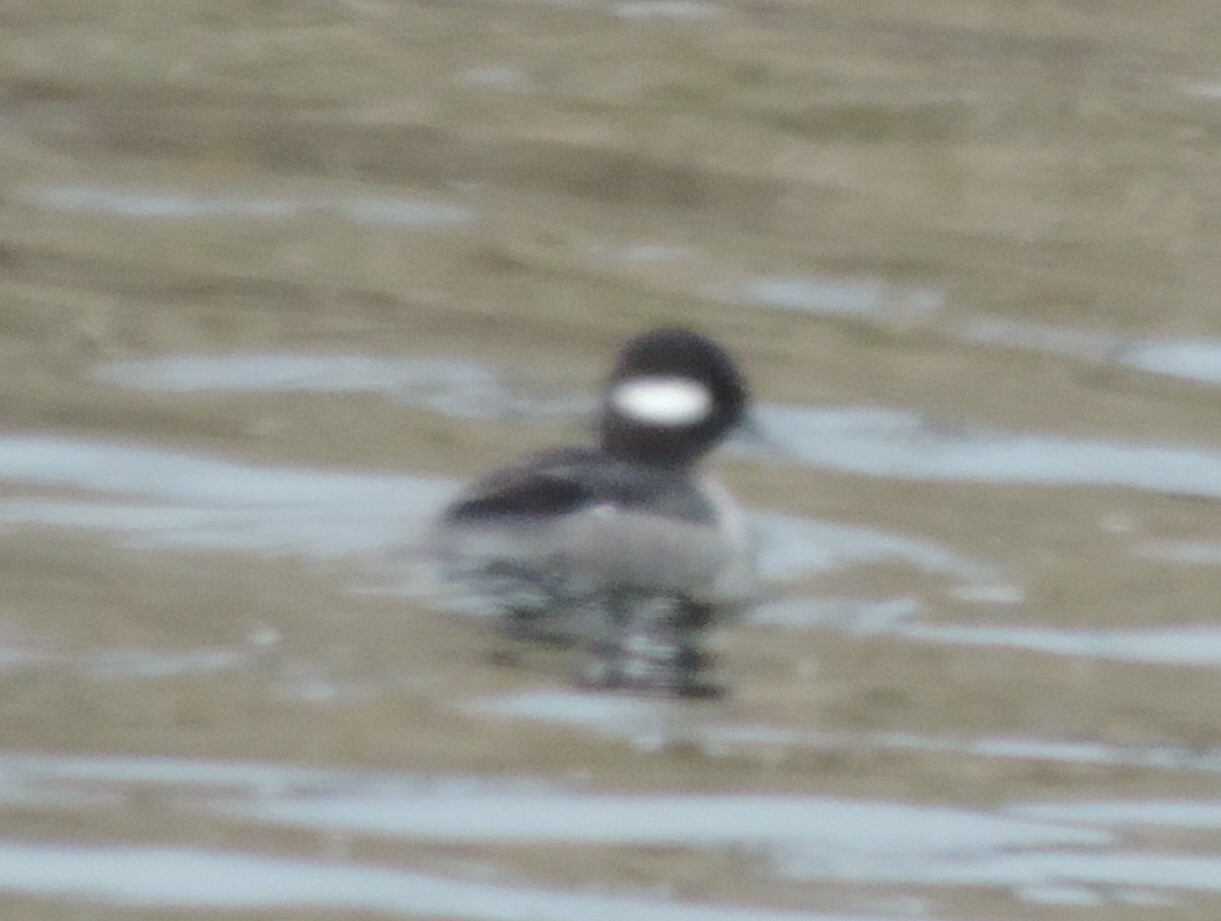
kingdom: Animalia
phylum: Chordata
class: Aves
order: Anseriformes
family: Anatidae
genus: Bucephala
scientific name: Bucephala albeola
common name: Bufflehead
